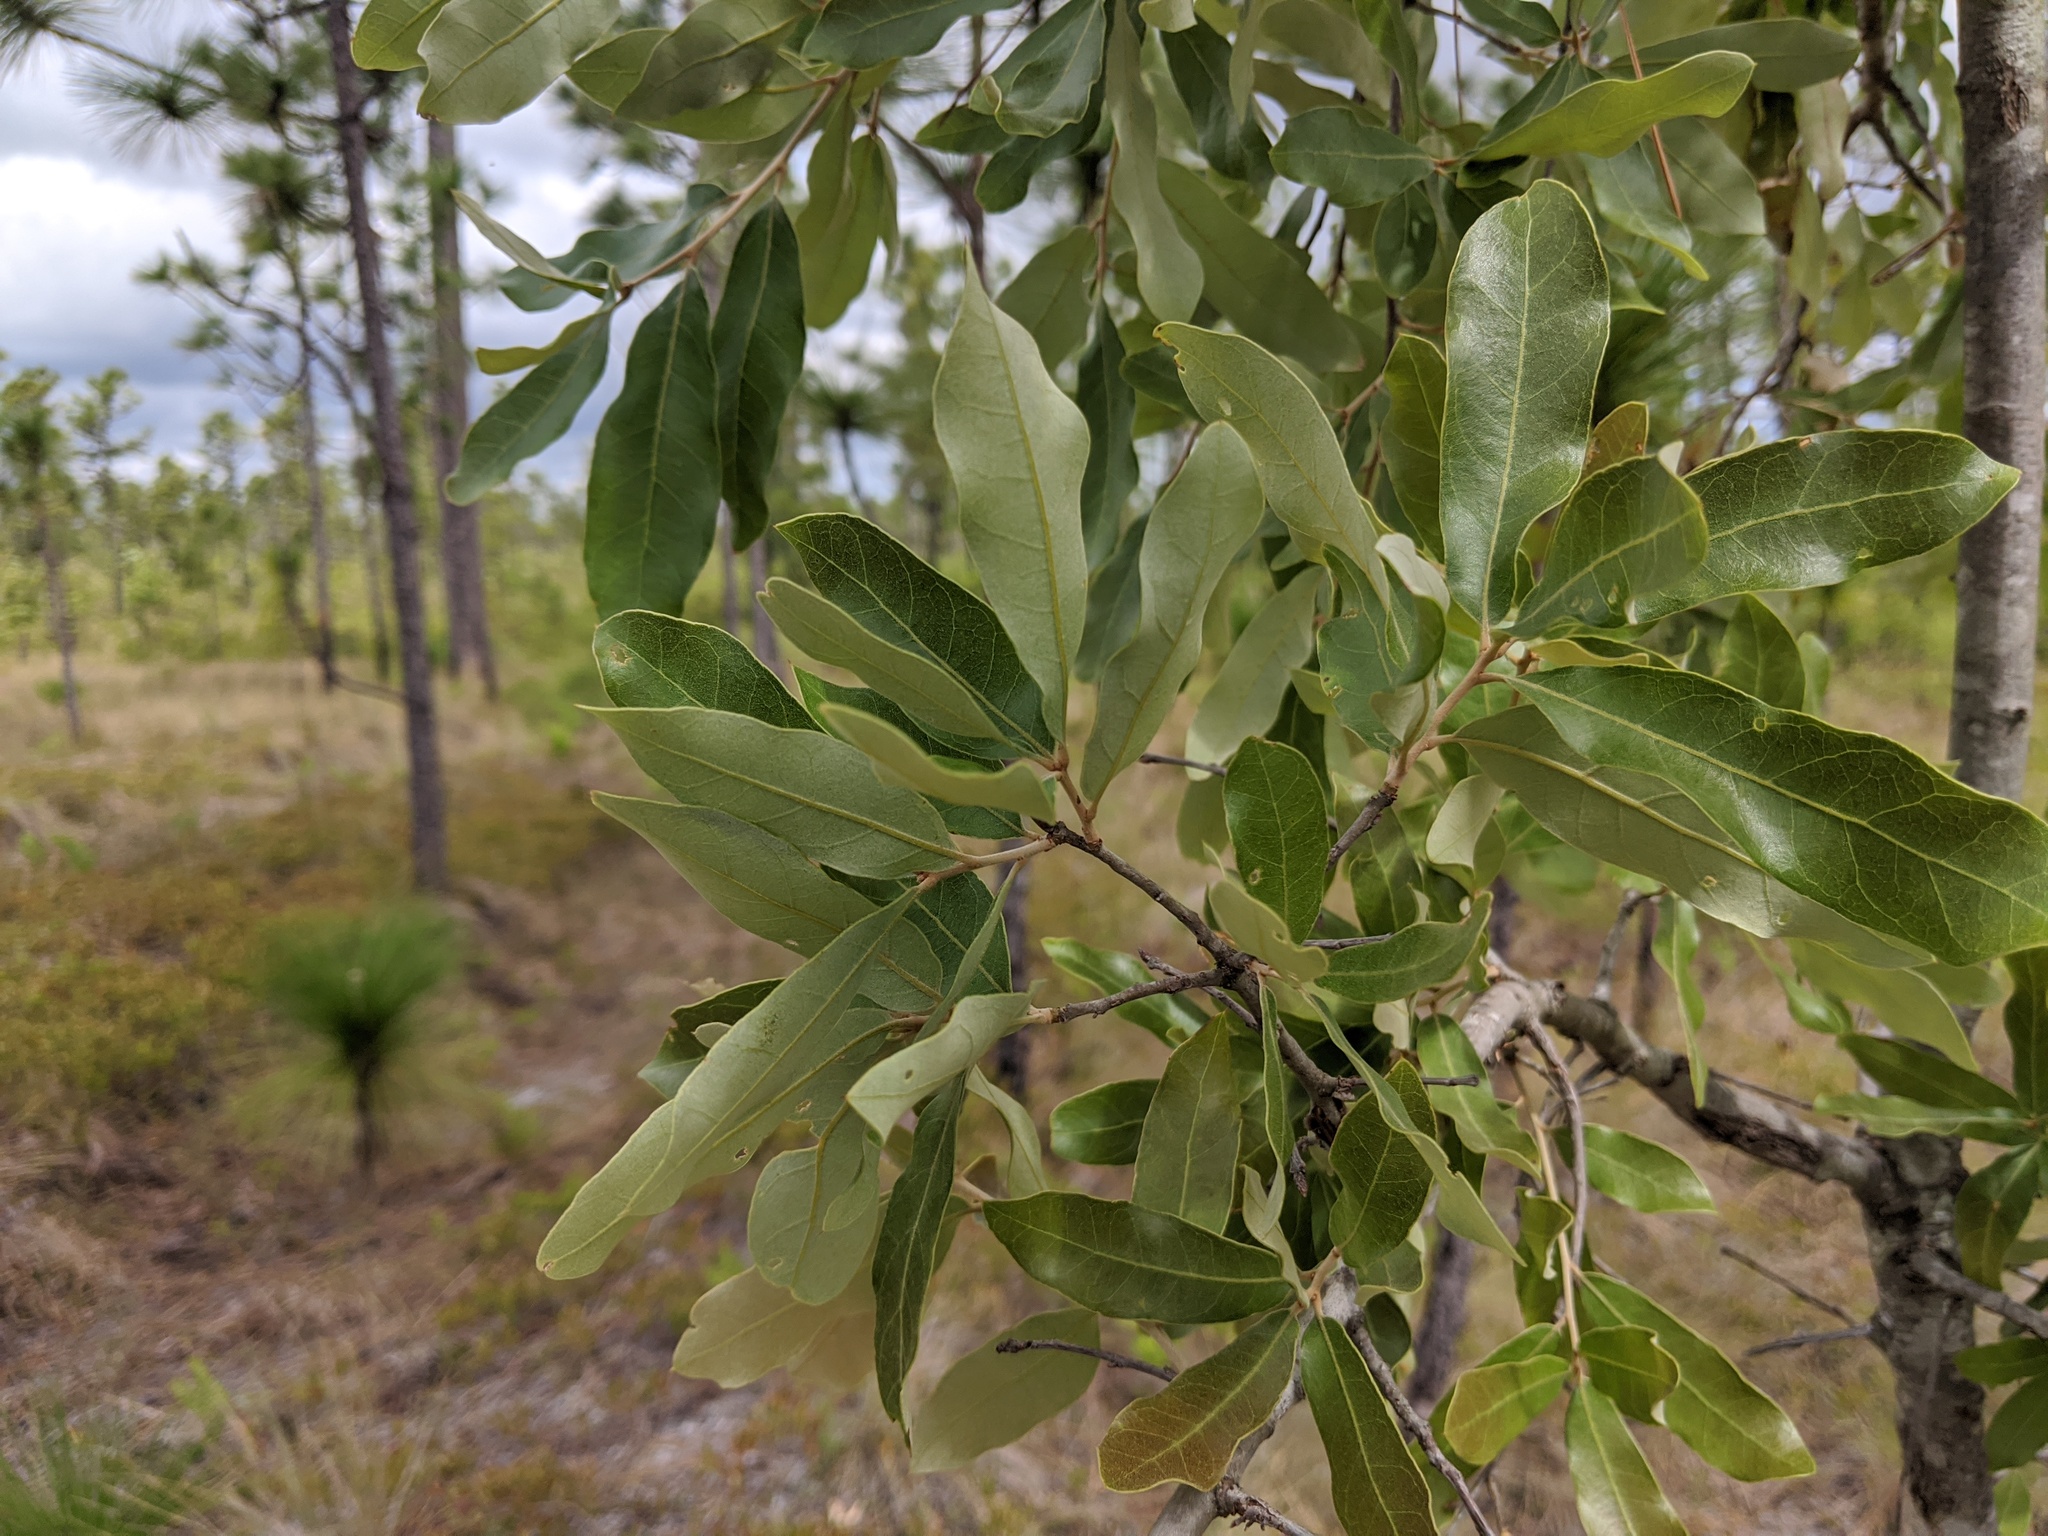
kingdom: Plantae
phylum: Tracheophyta
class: Magnoliopsida
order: Fagales
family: Fagaceae
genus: Quercus
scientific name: Quercus incana
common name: Bluejack oak
